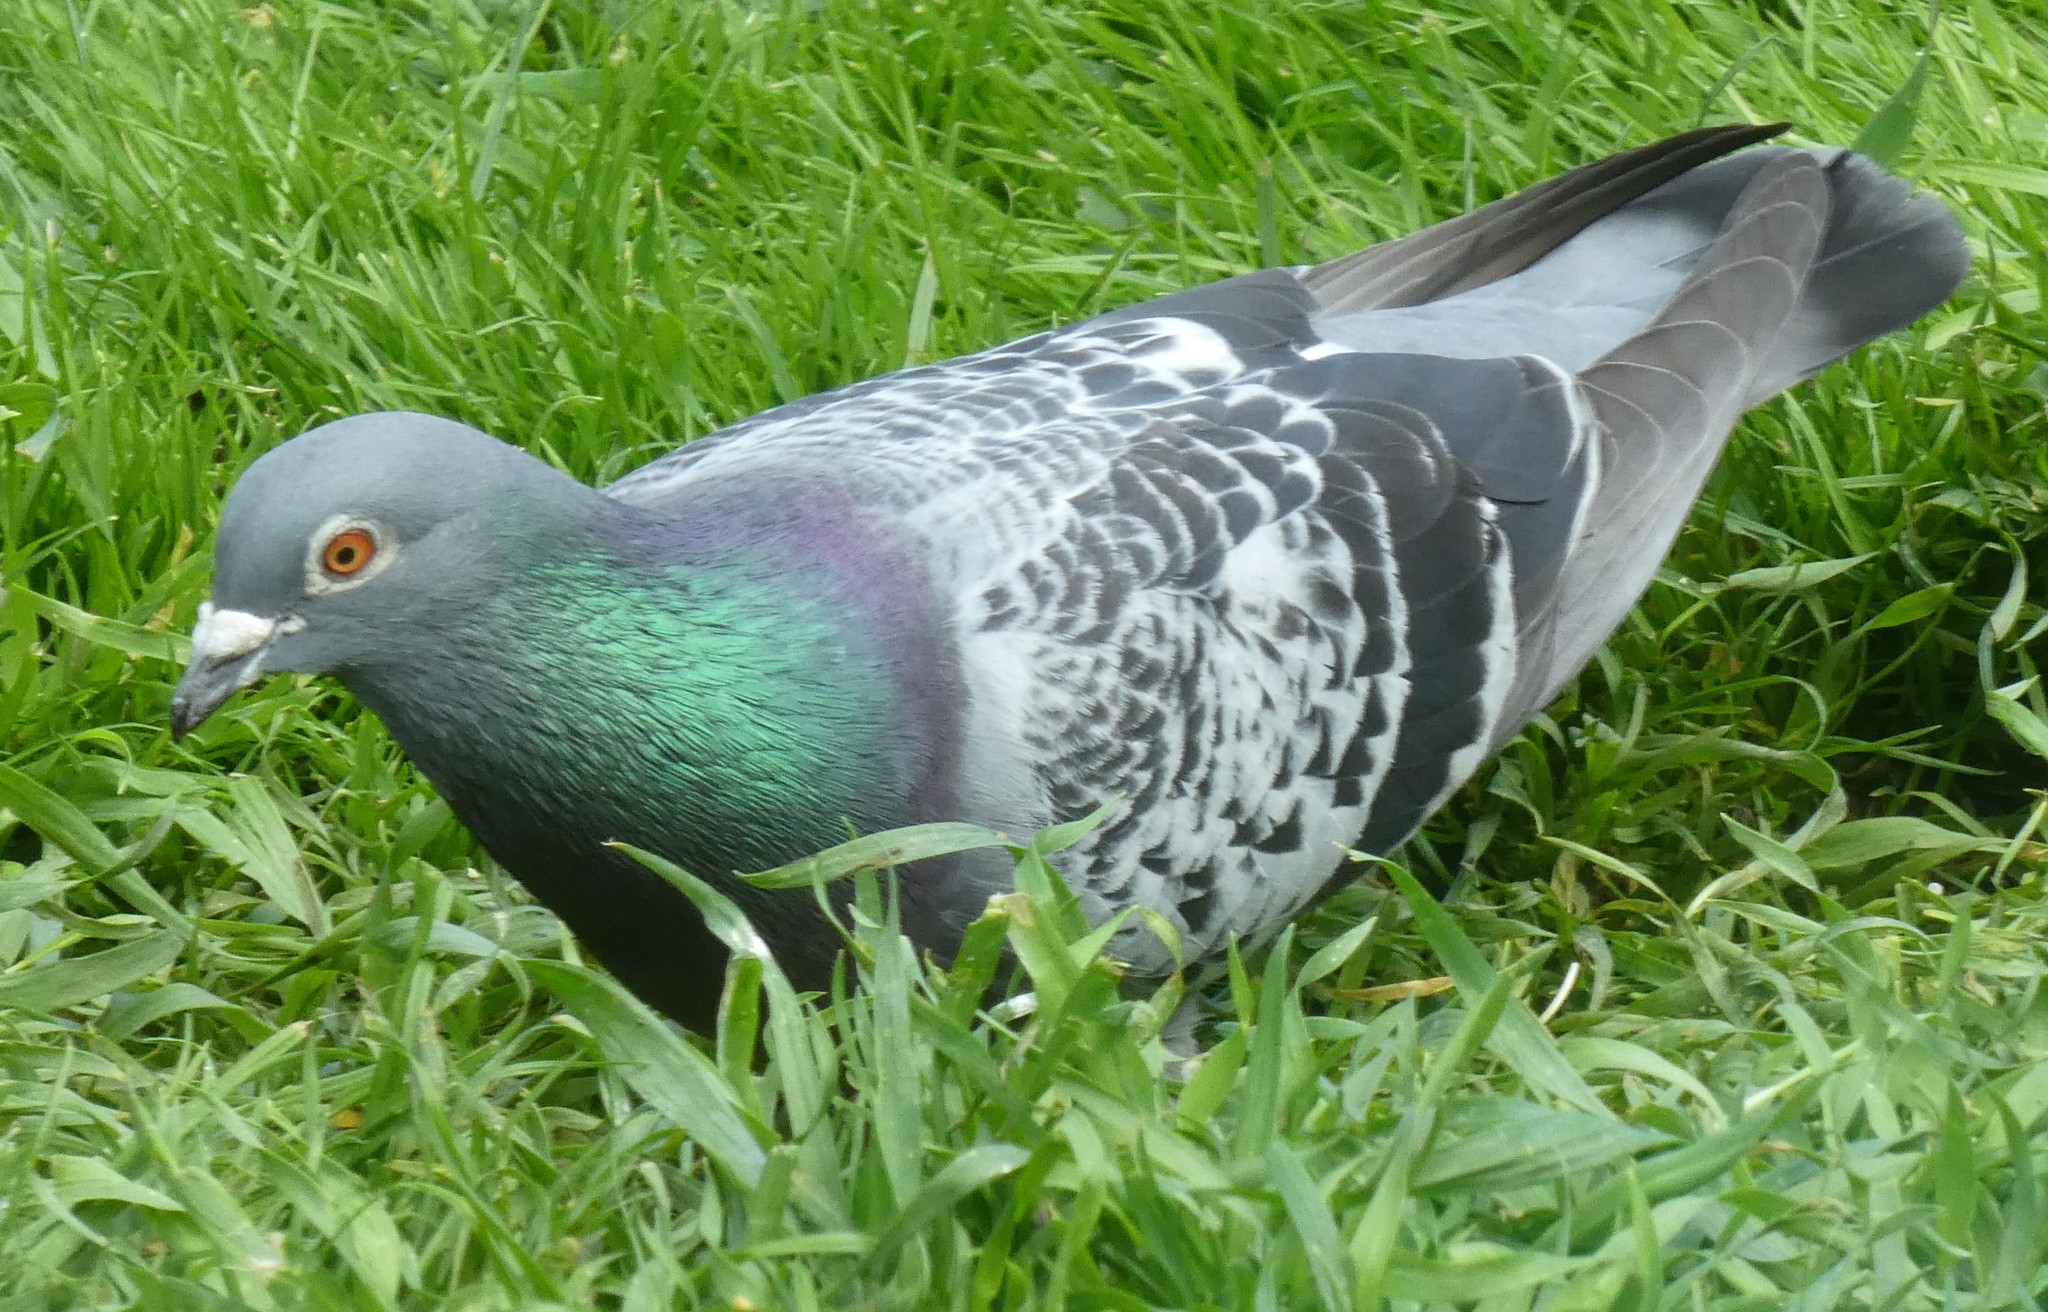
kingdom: Animalia
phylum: Chordata
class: Aves
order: Columbiformes
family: Columbidae
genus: Columba
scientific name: Columba livia
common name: Rock pigeon
